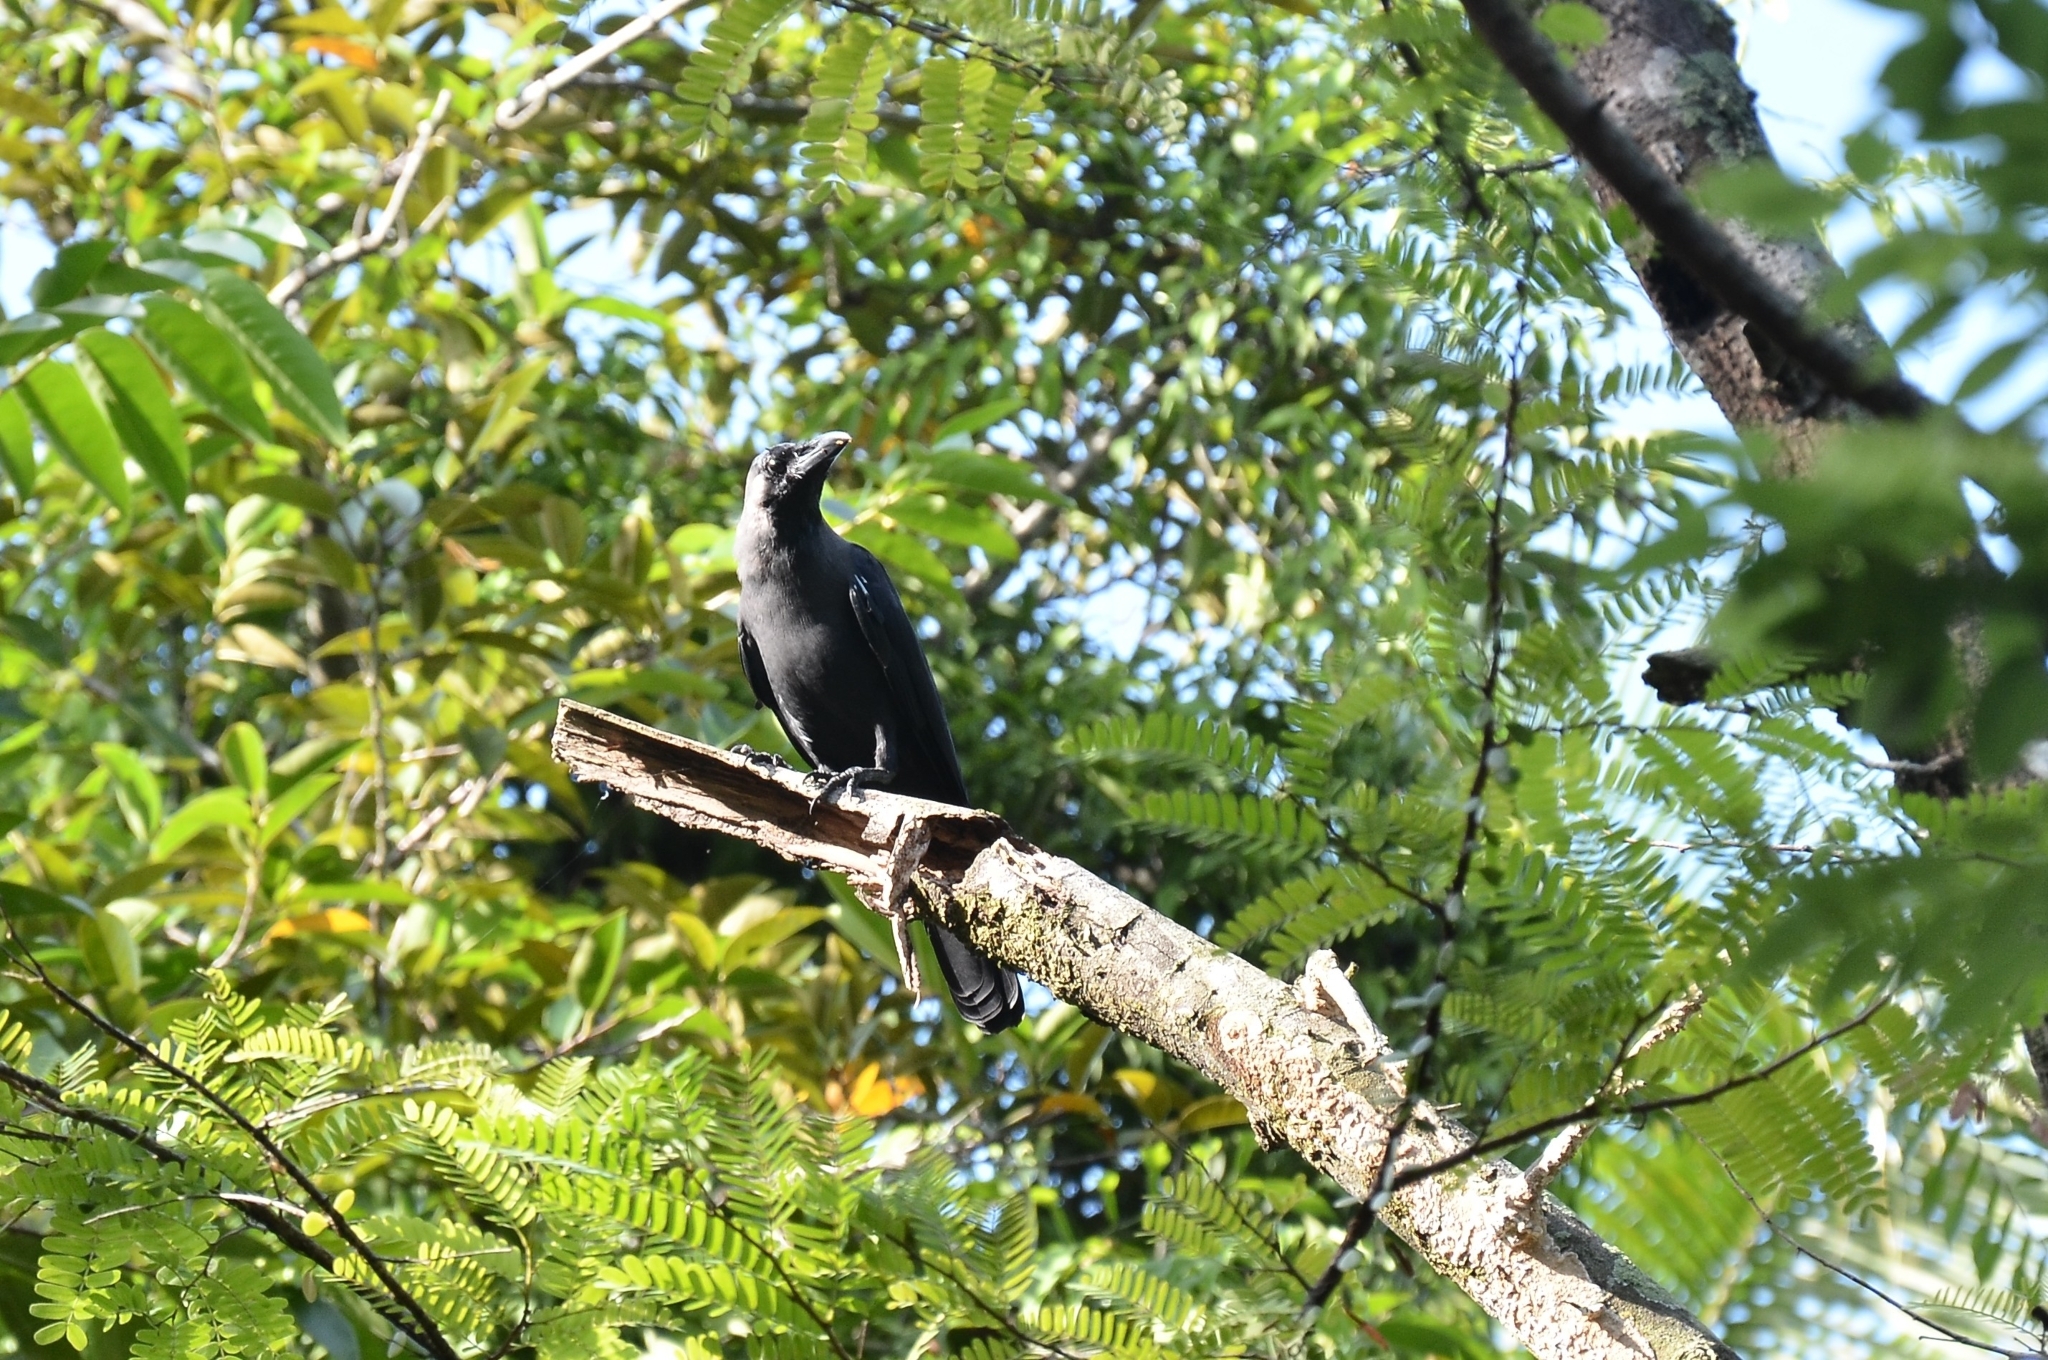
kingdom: Animalia
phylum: Chordata
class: Aves
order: Passeriformes
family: Corvidae
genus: Corvus
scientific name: Corvus splendens
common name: House crow
